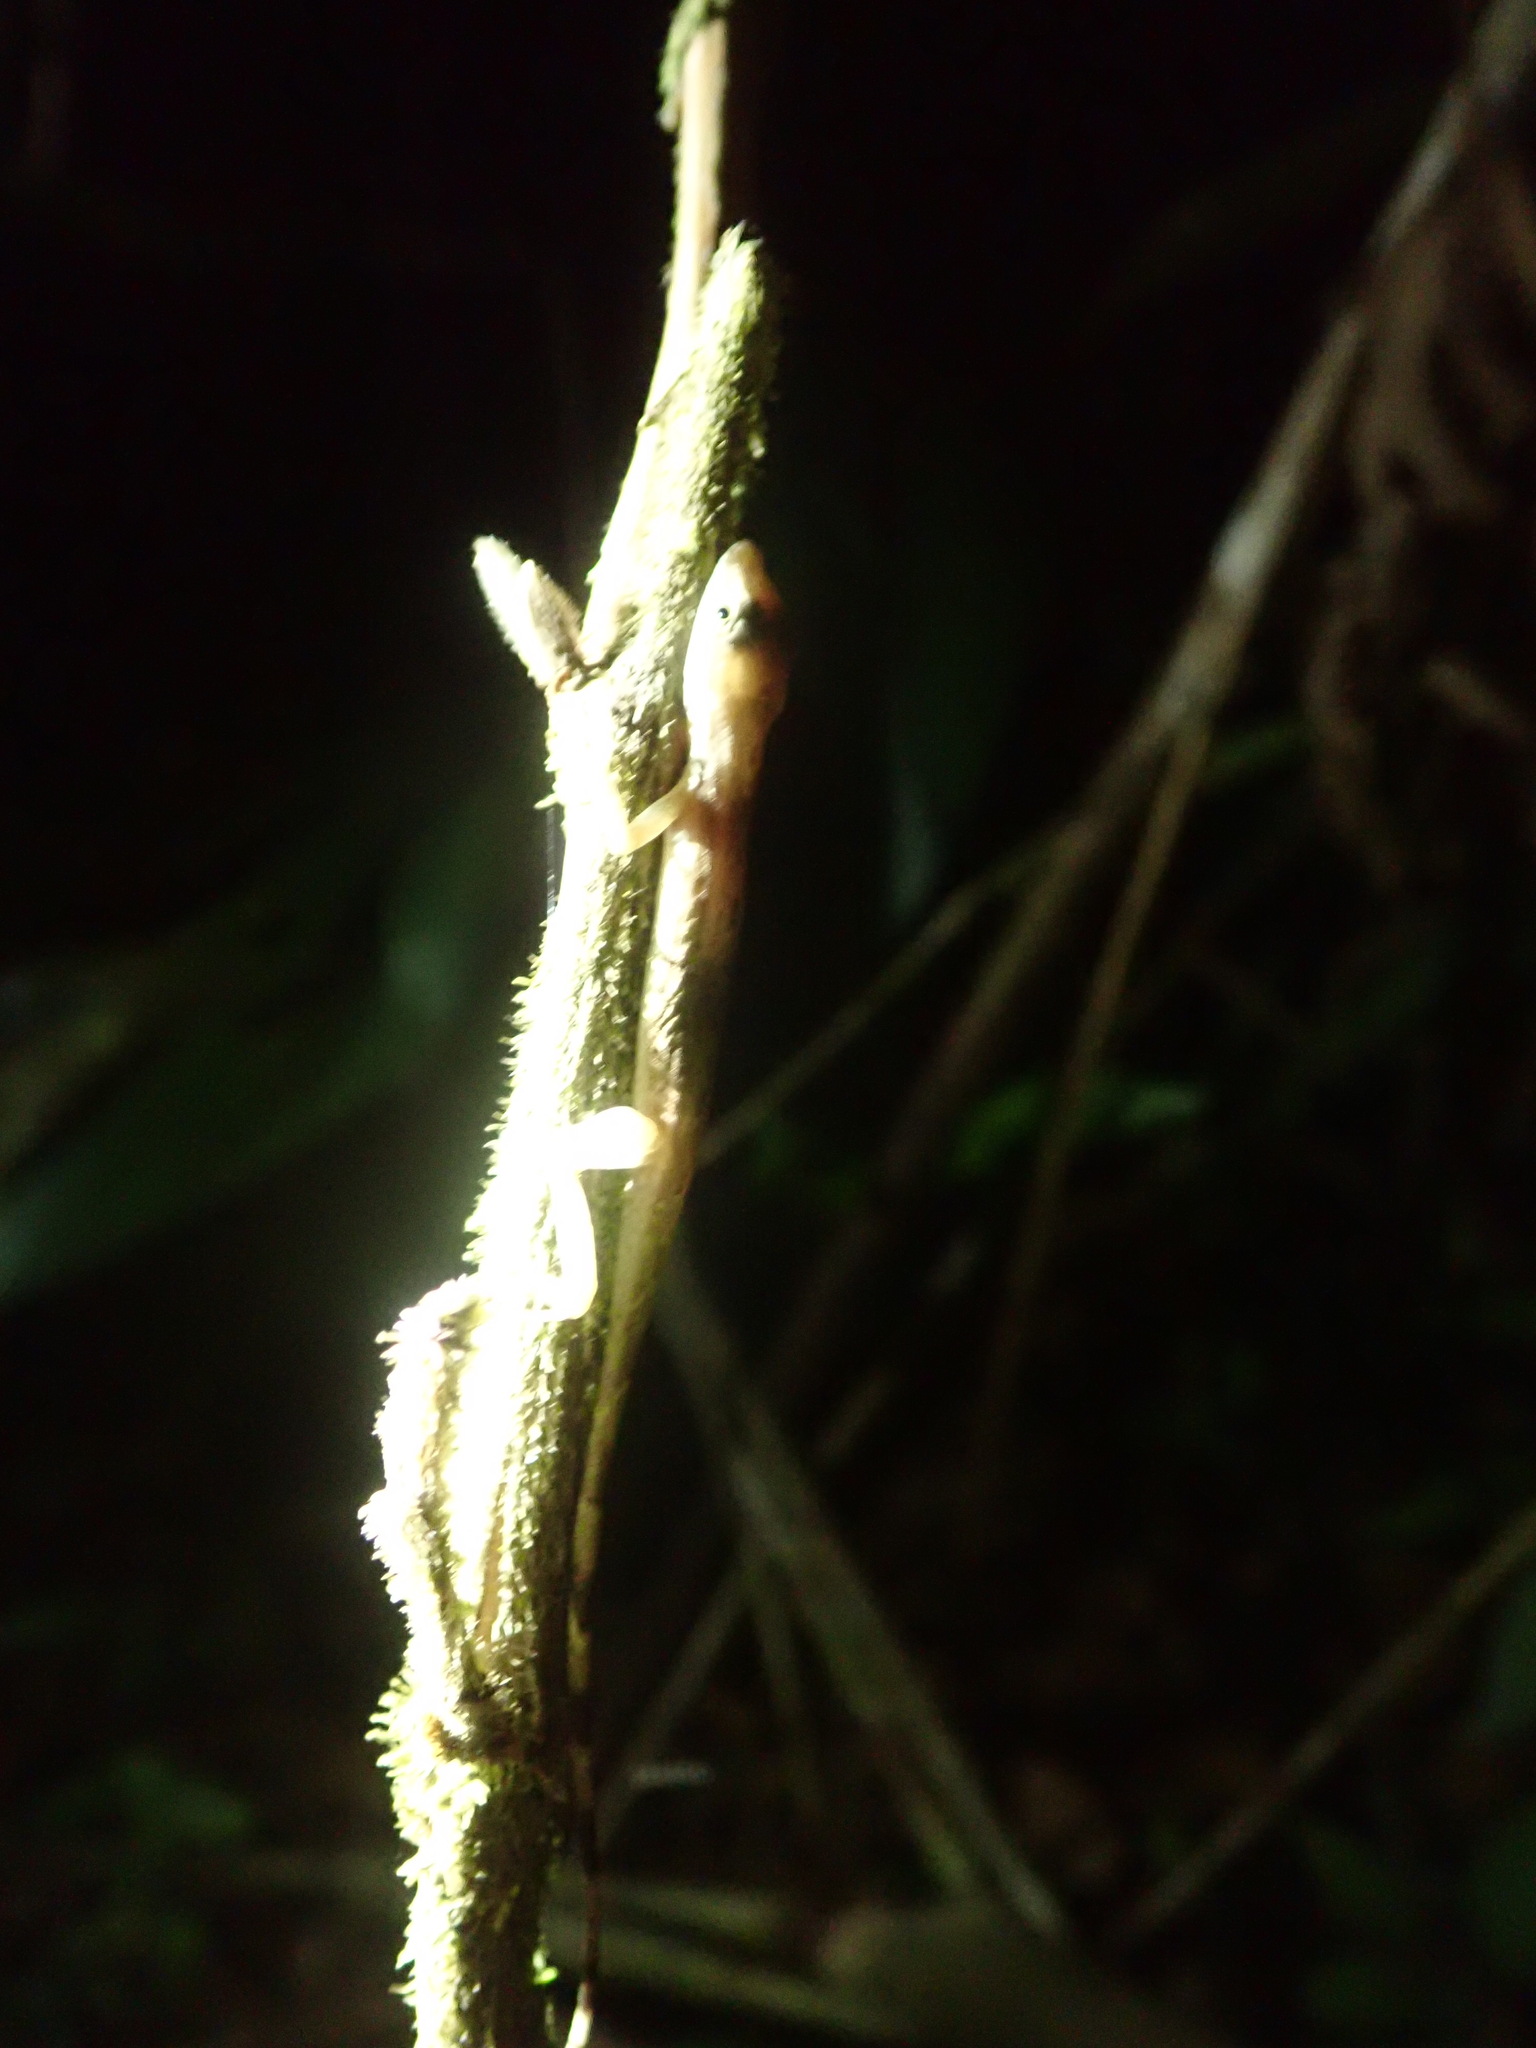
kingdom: Animalia
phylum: Chordata
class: Squamata
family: Dactyloidae
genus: Anolis
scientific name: Anolis limifrons
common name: Border anole
